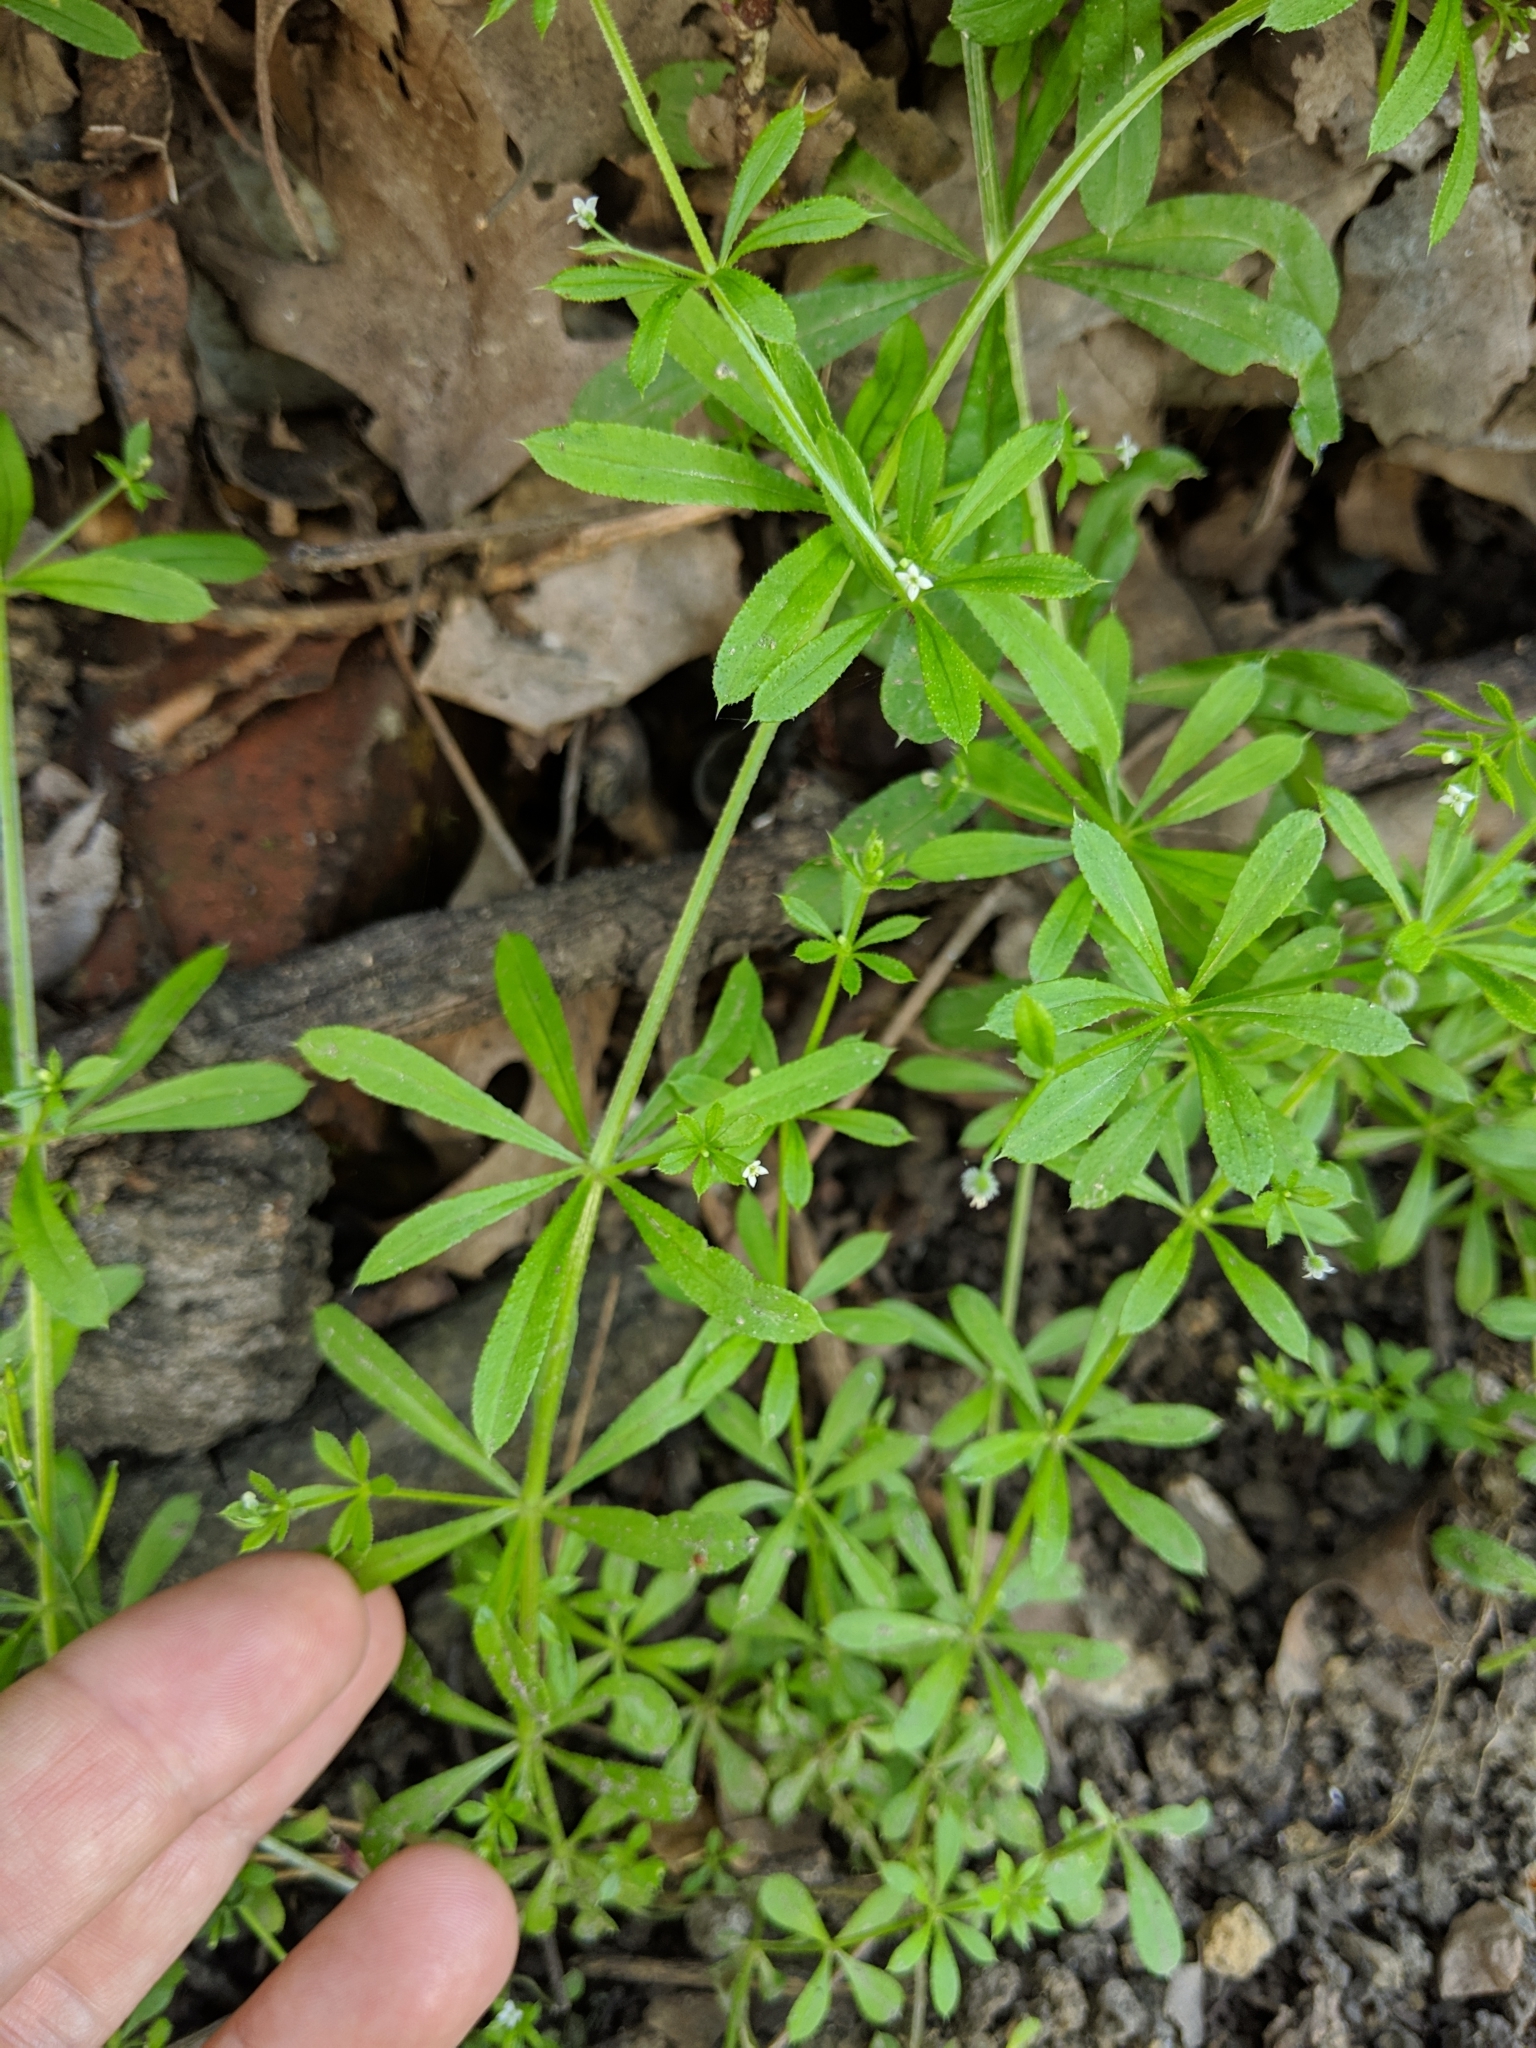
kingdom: Plantae
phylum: Tracheophyta
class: Magnoliopsida
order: Gentianales
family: Rubiaceae
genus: Galium
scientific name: Galium aparine
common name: Cleavers
